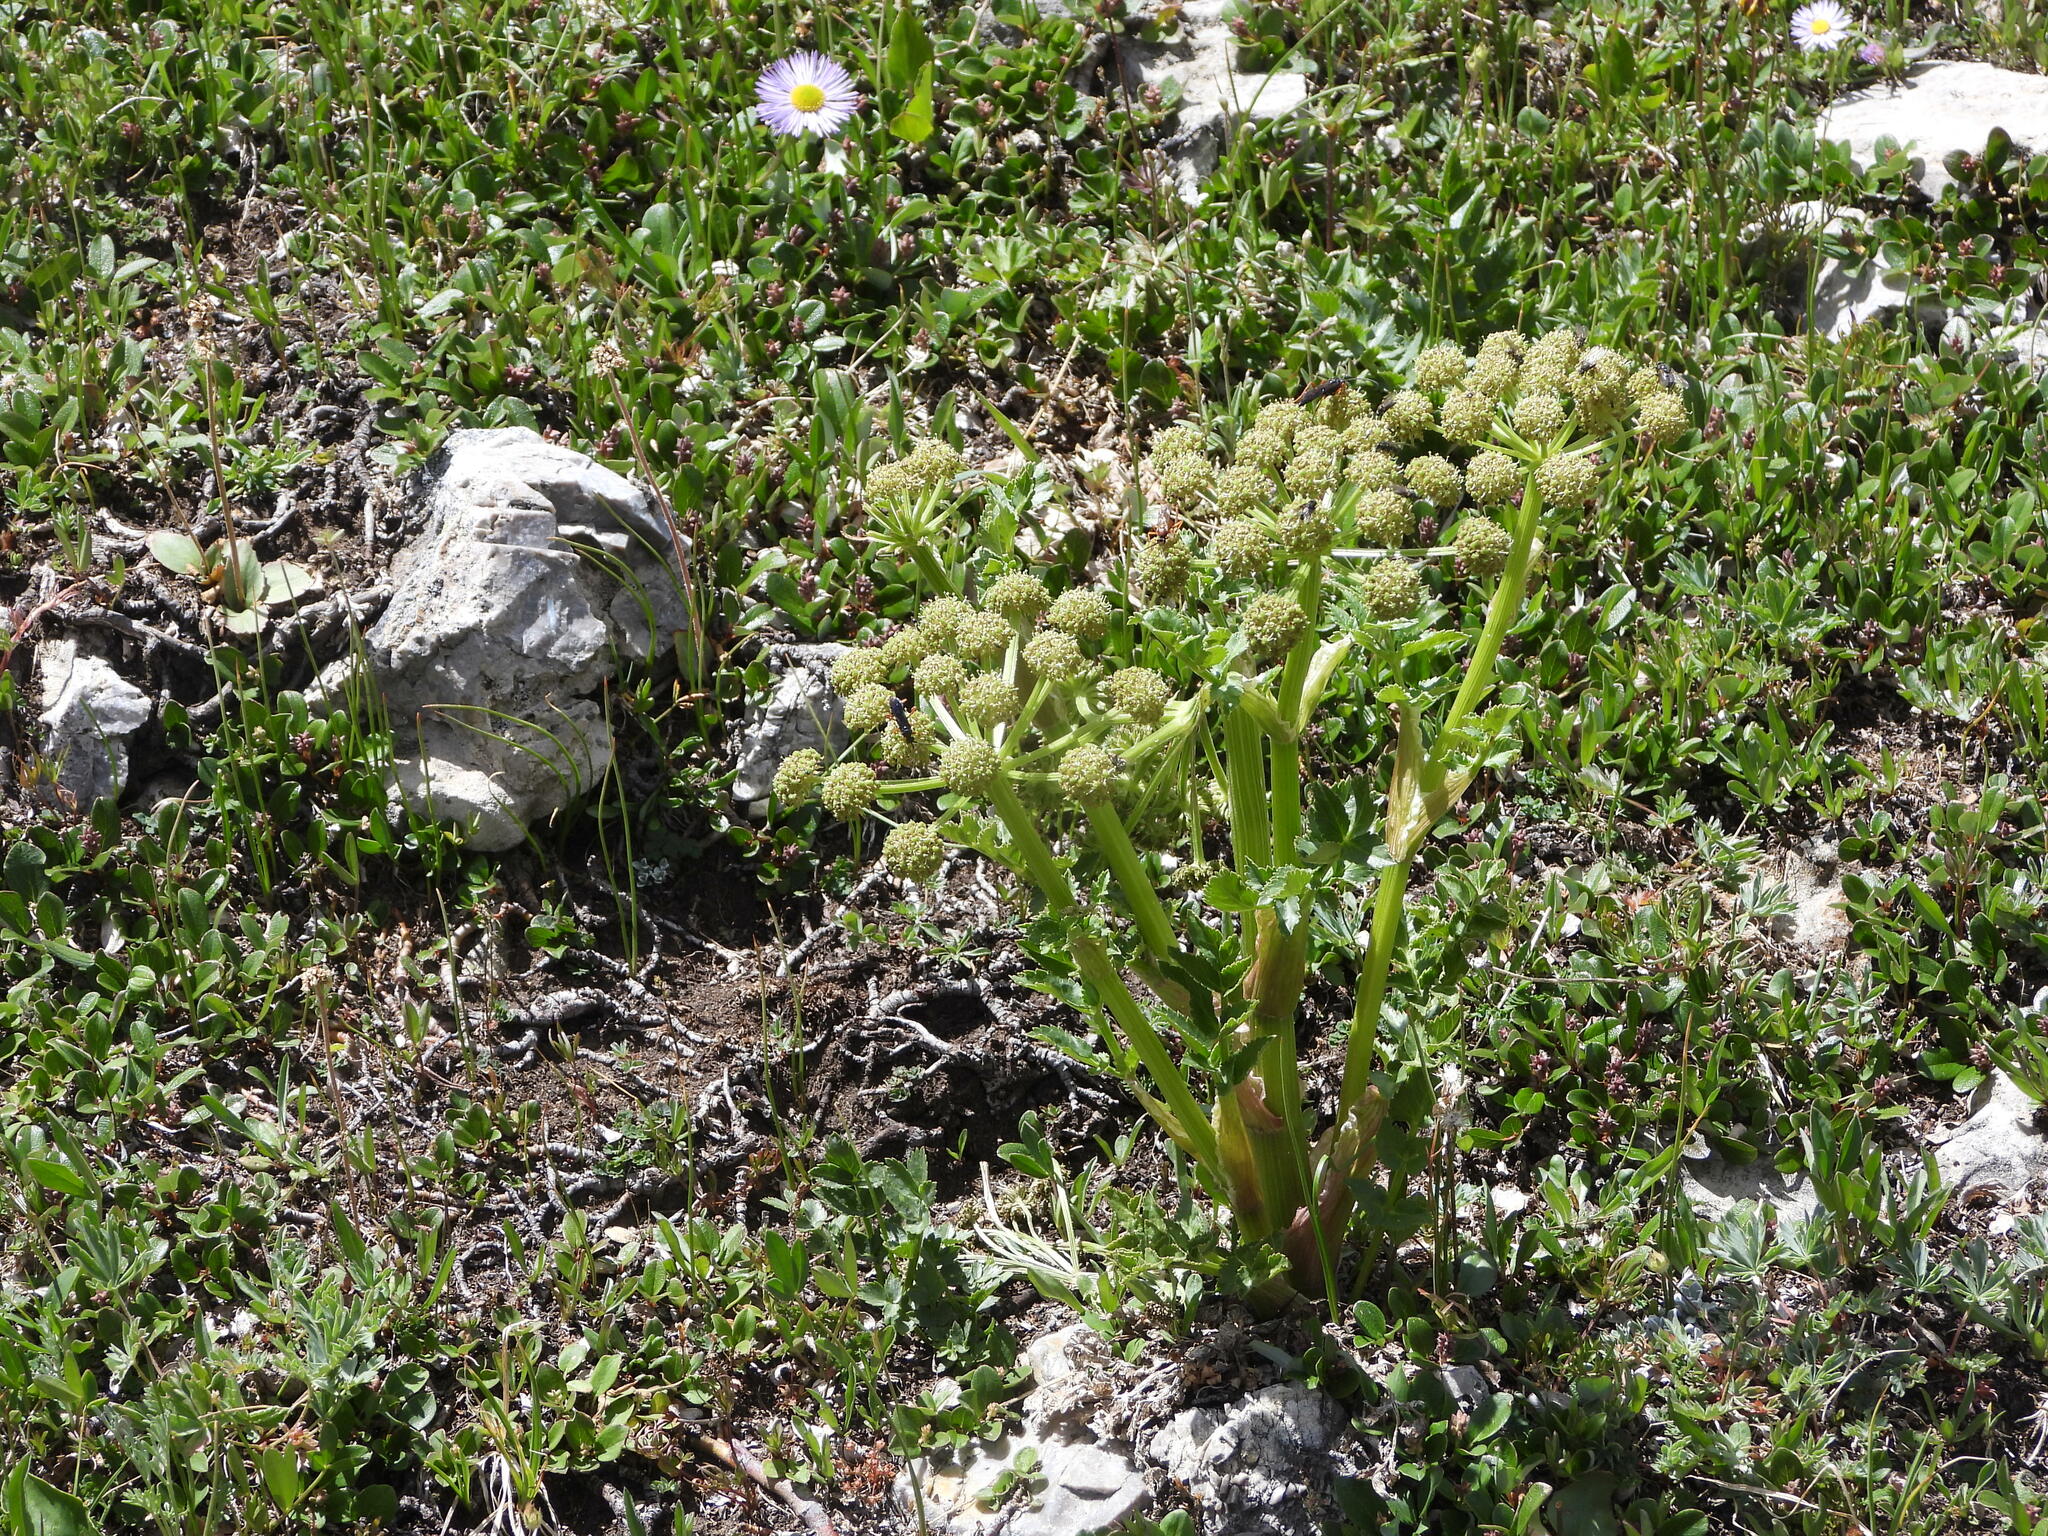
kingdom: Plantae
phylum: Tracheophyta
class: Magnoliopsida
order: Apiales
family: Apiaceae
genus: Angelica
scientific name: Angelica grayi
